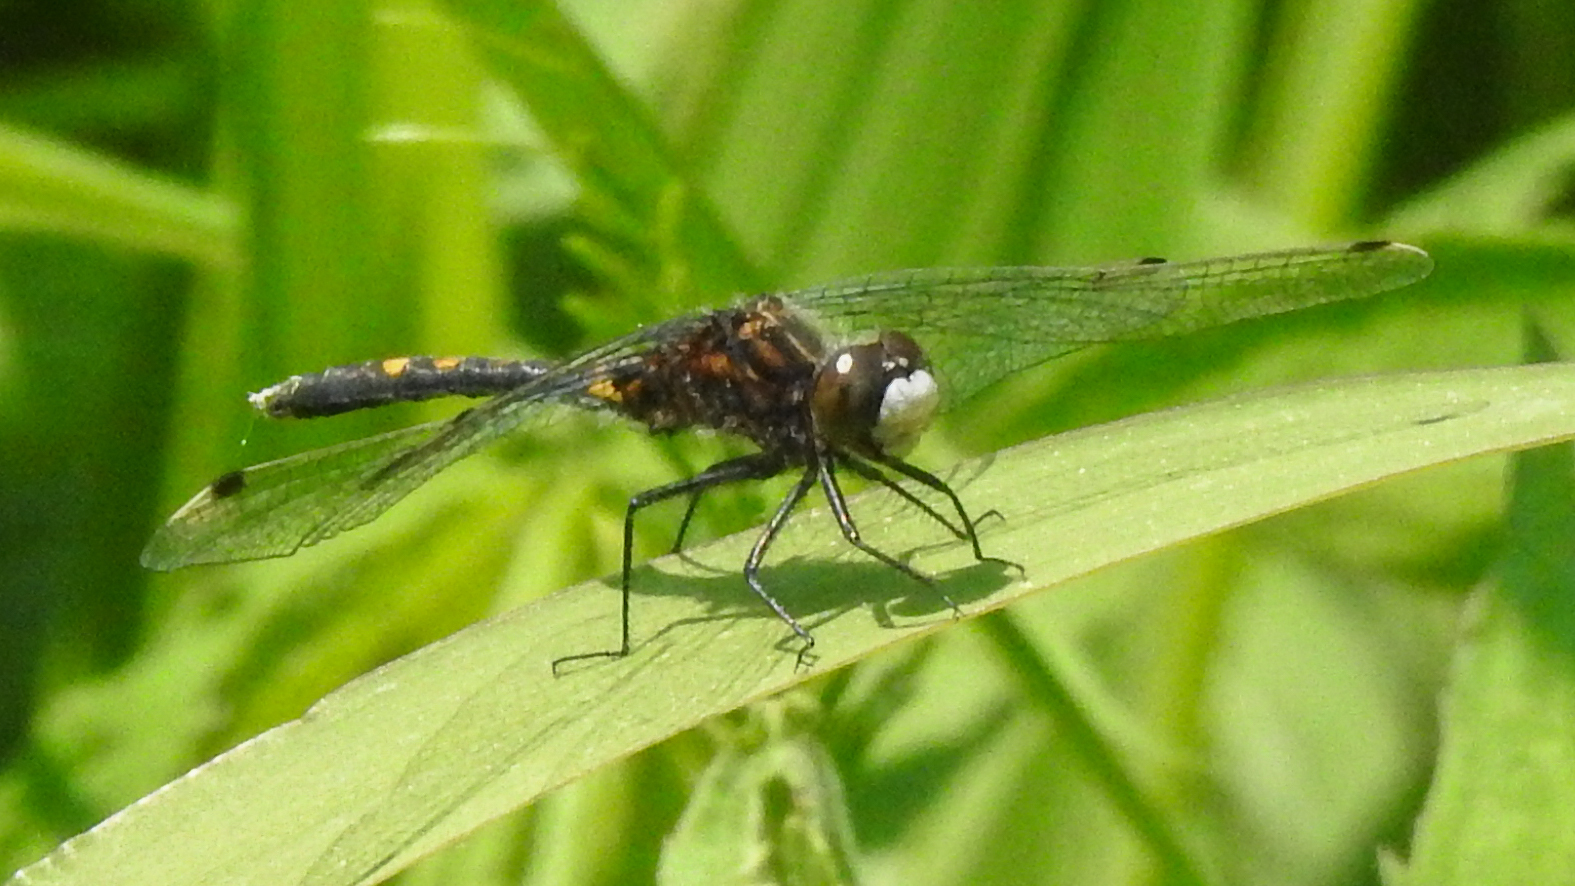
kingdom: Animalia
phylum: Arthropoda
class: Insecta
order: Odonata
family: Libellulidae
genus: Leucorrhinia
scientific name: Leucorrhinia intacta
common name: Dot-tailed whiteface
